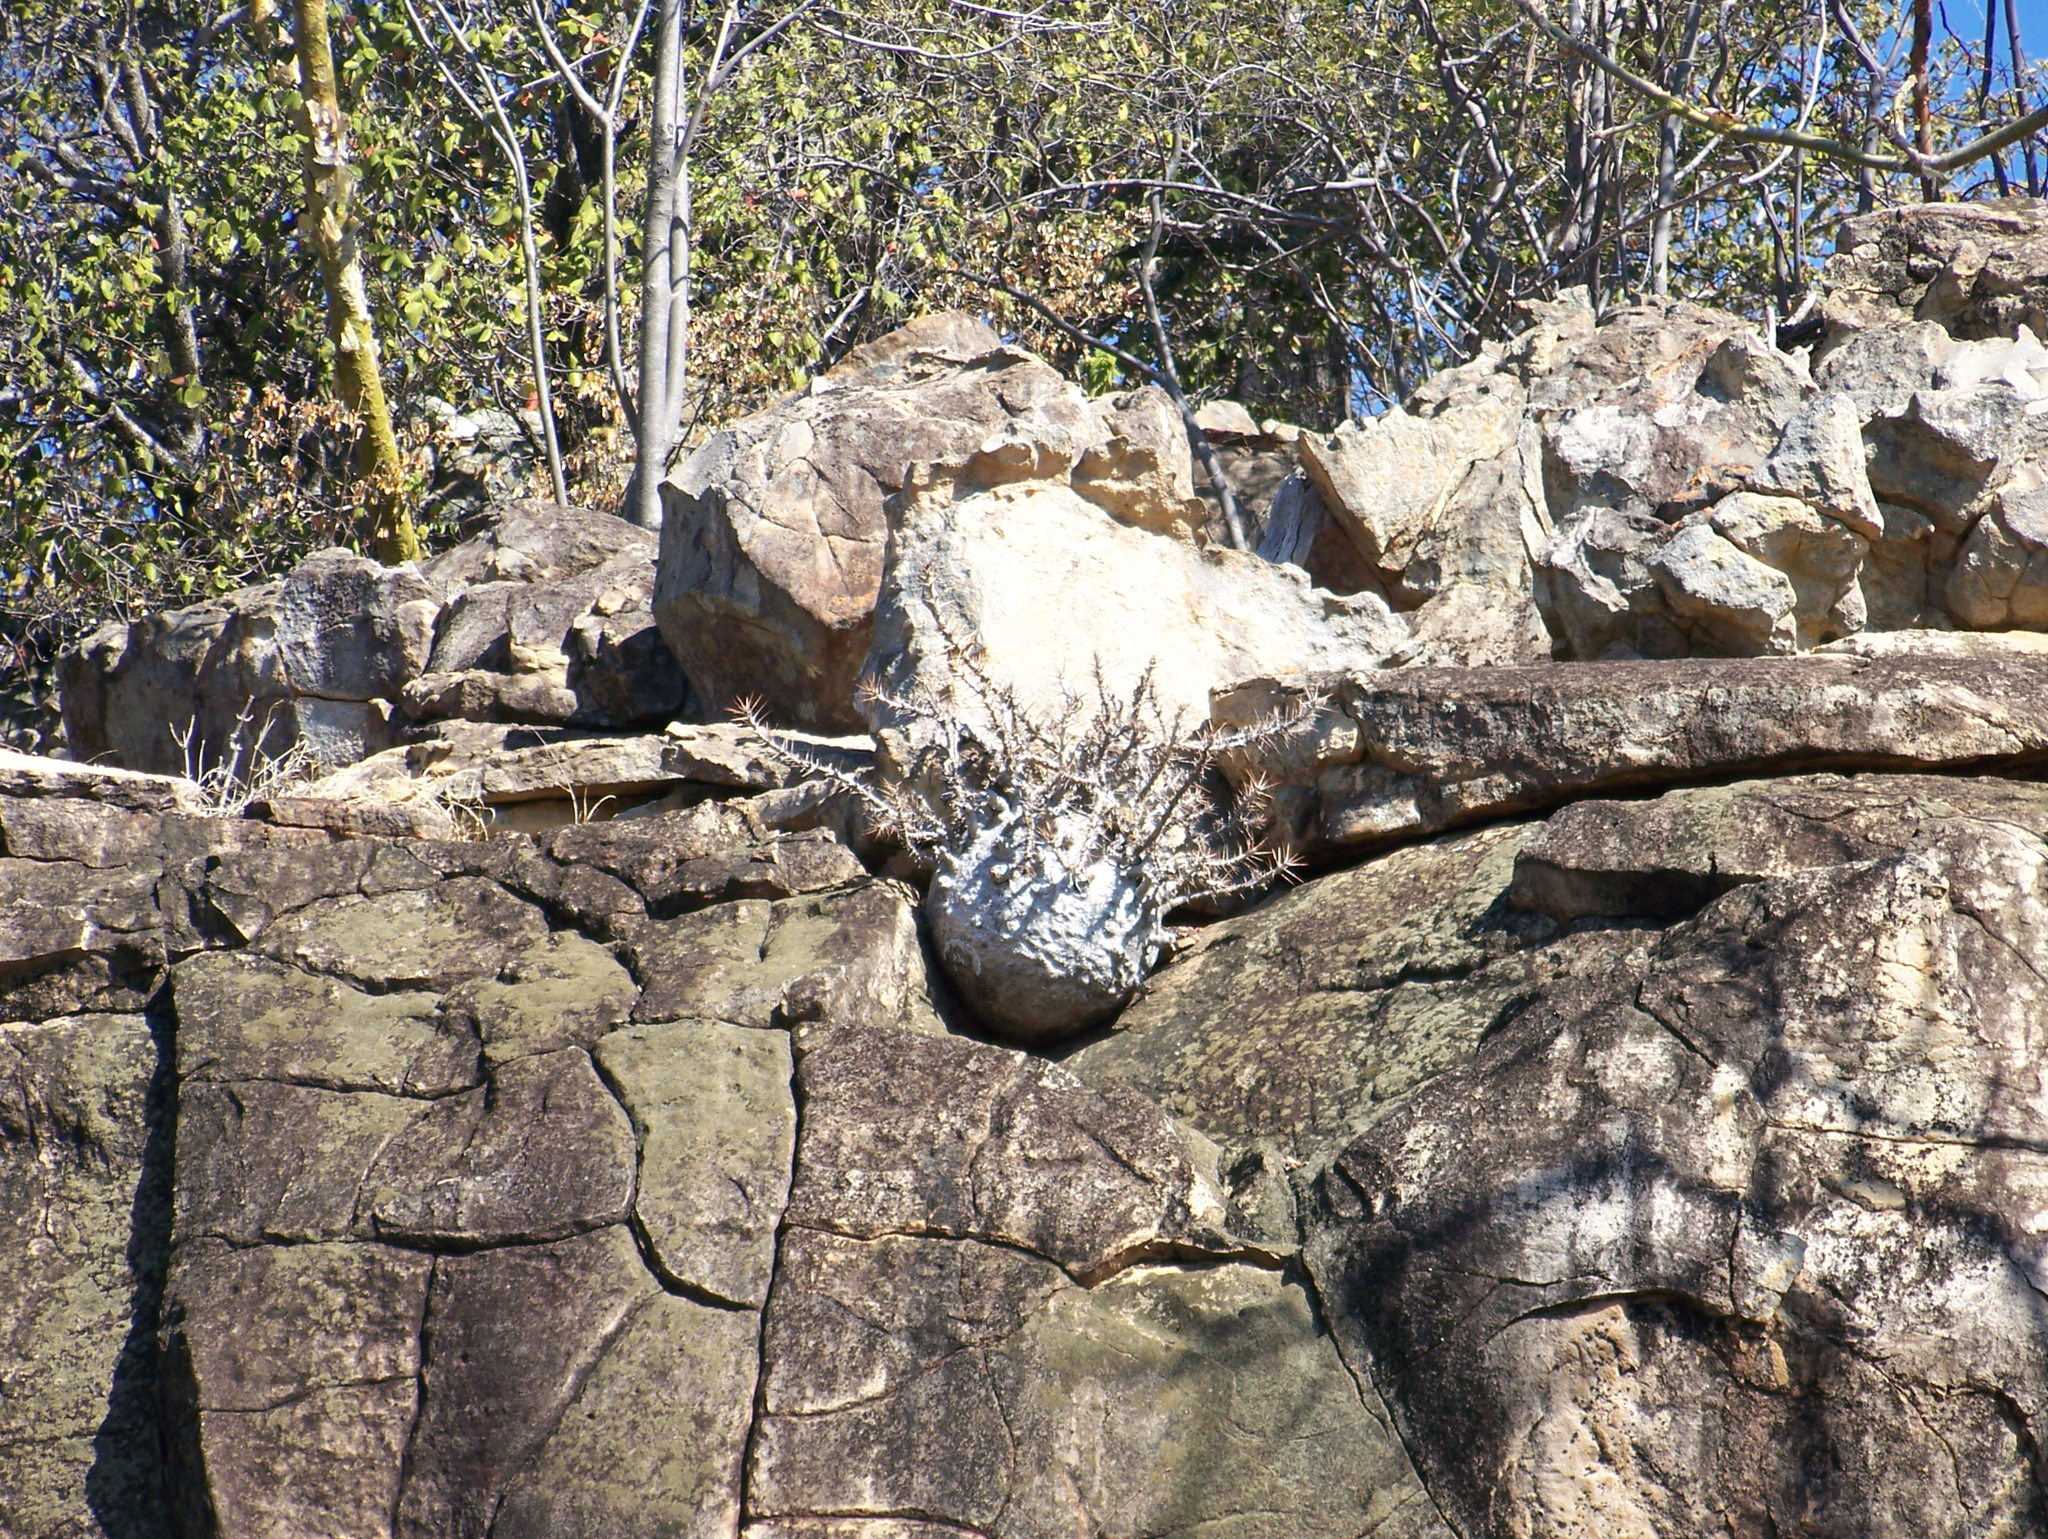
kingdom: Plantae
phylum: Tracheophyta
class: Magnoliopsida
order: Gentianales
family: Apocynaceae
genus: Pachypodium
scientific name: Pachypodium saundersii
